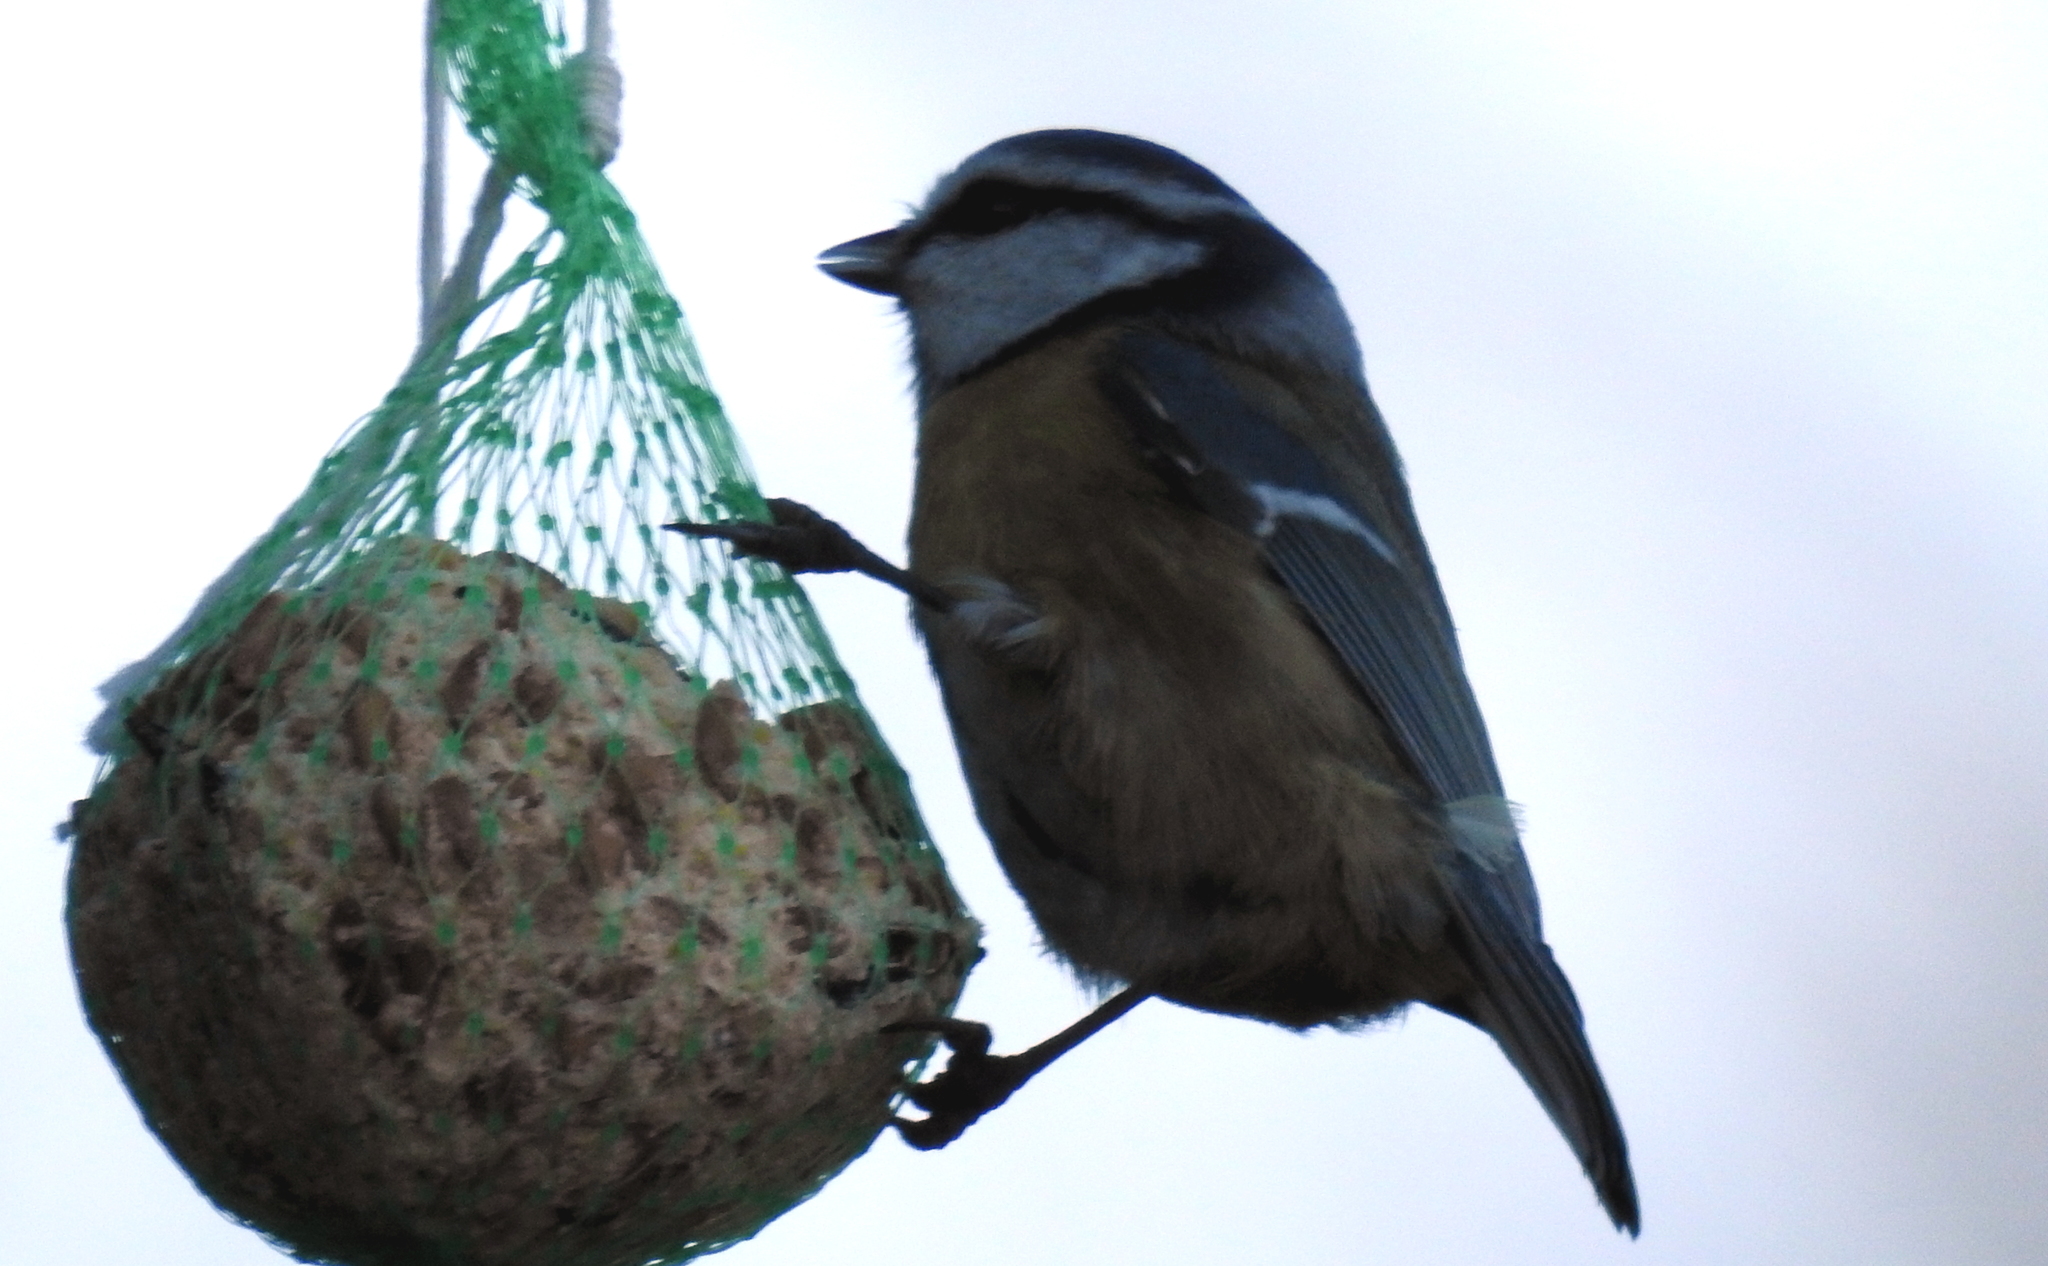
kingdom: Animalia
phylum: Chordata
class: Aves
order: Passeriformes
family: Paridae
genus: Cyanistes
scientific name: Cyanistes caeruleus
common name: Eurasian blue tit
